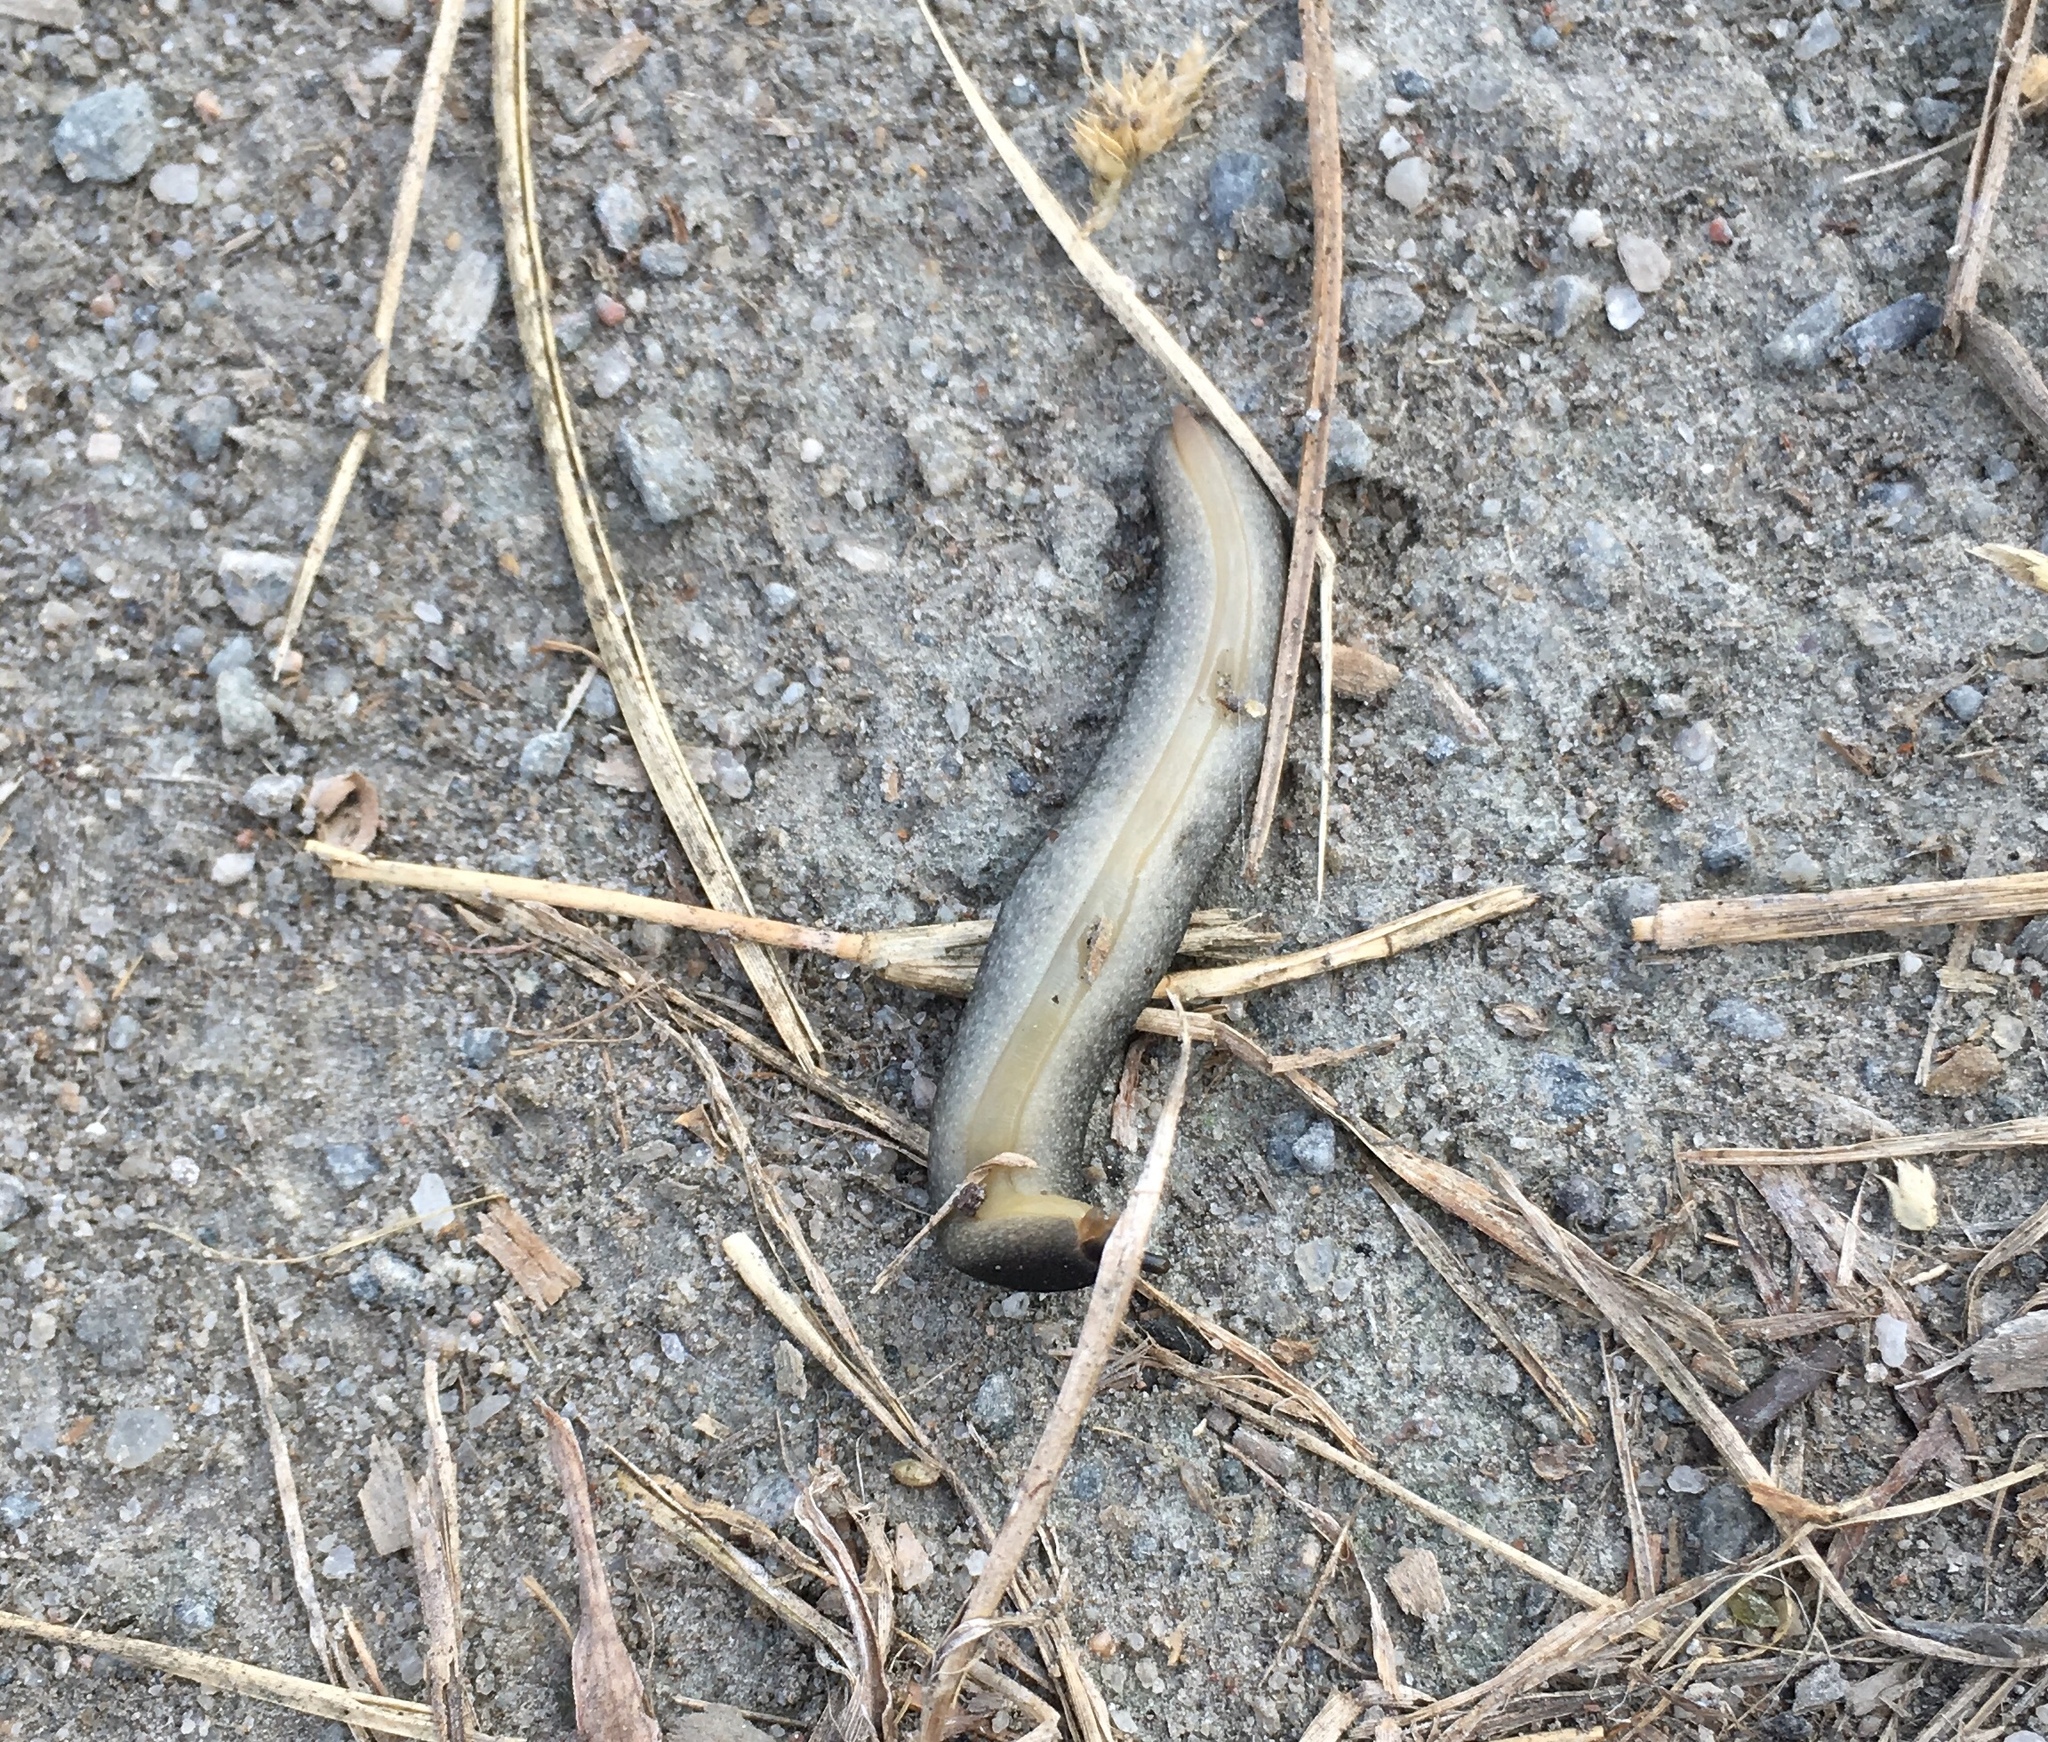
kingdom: Animalia
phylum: Mollusca
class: Gastropoda
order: Systellommatophora
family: Veronicellidae
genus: Belocaulus
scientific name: Belocaulus angustipes
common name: Black velvet leatherleaf slug
